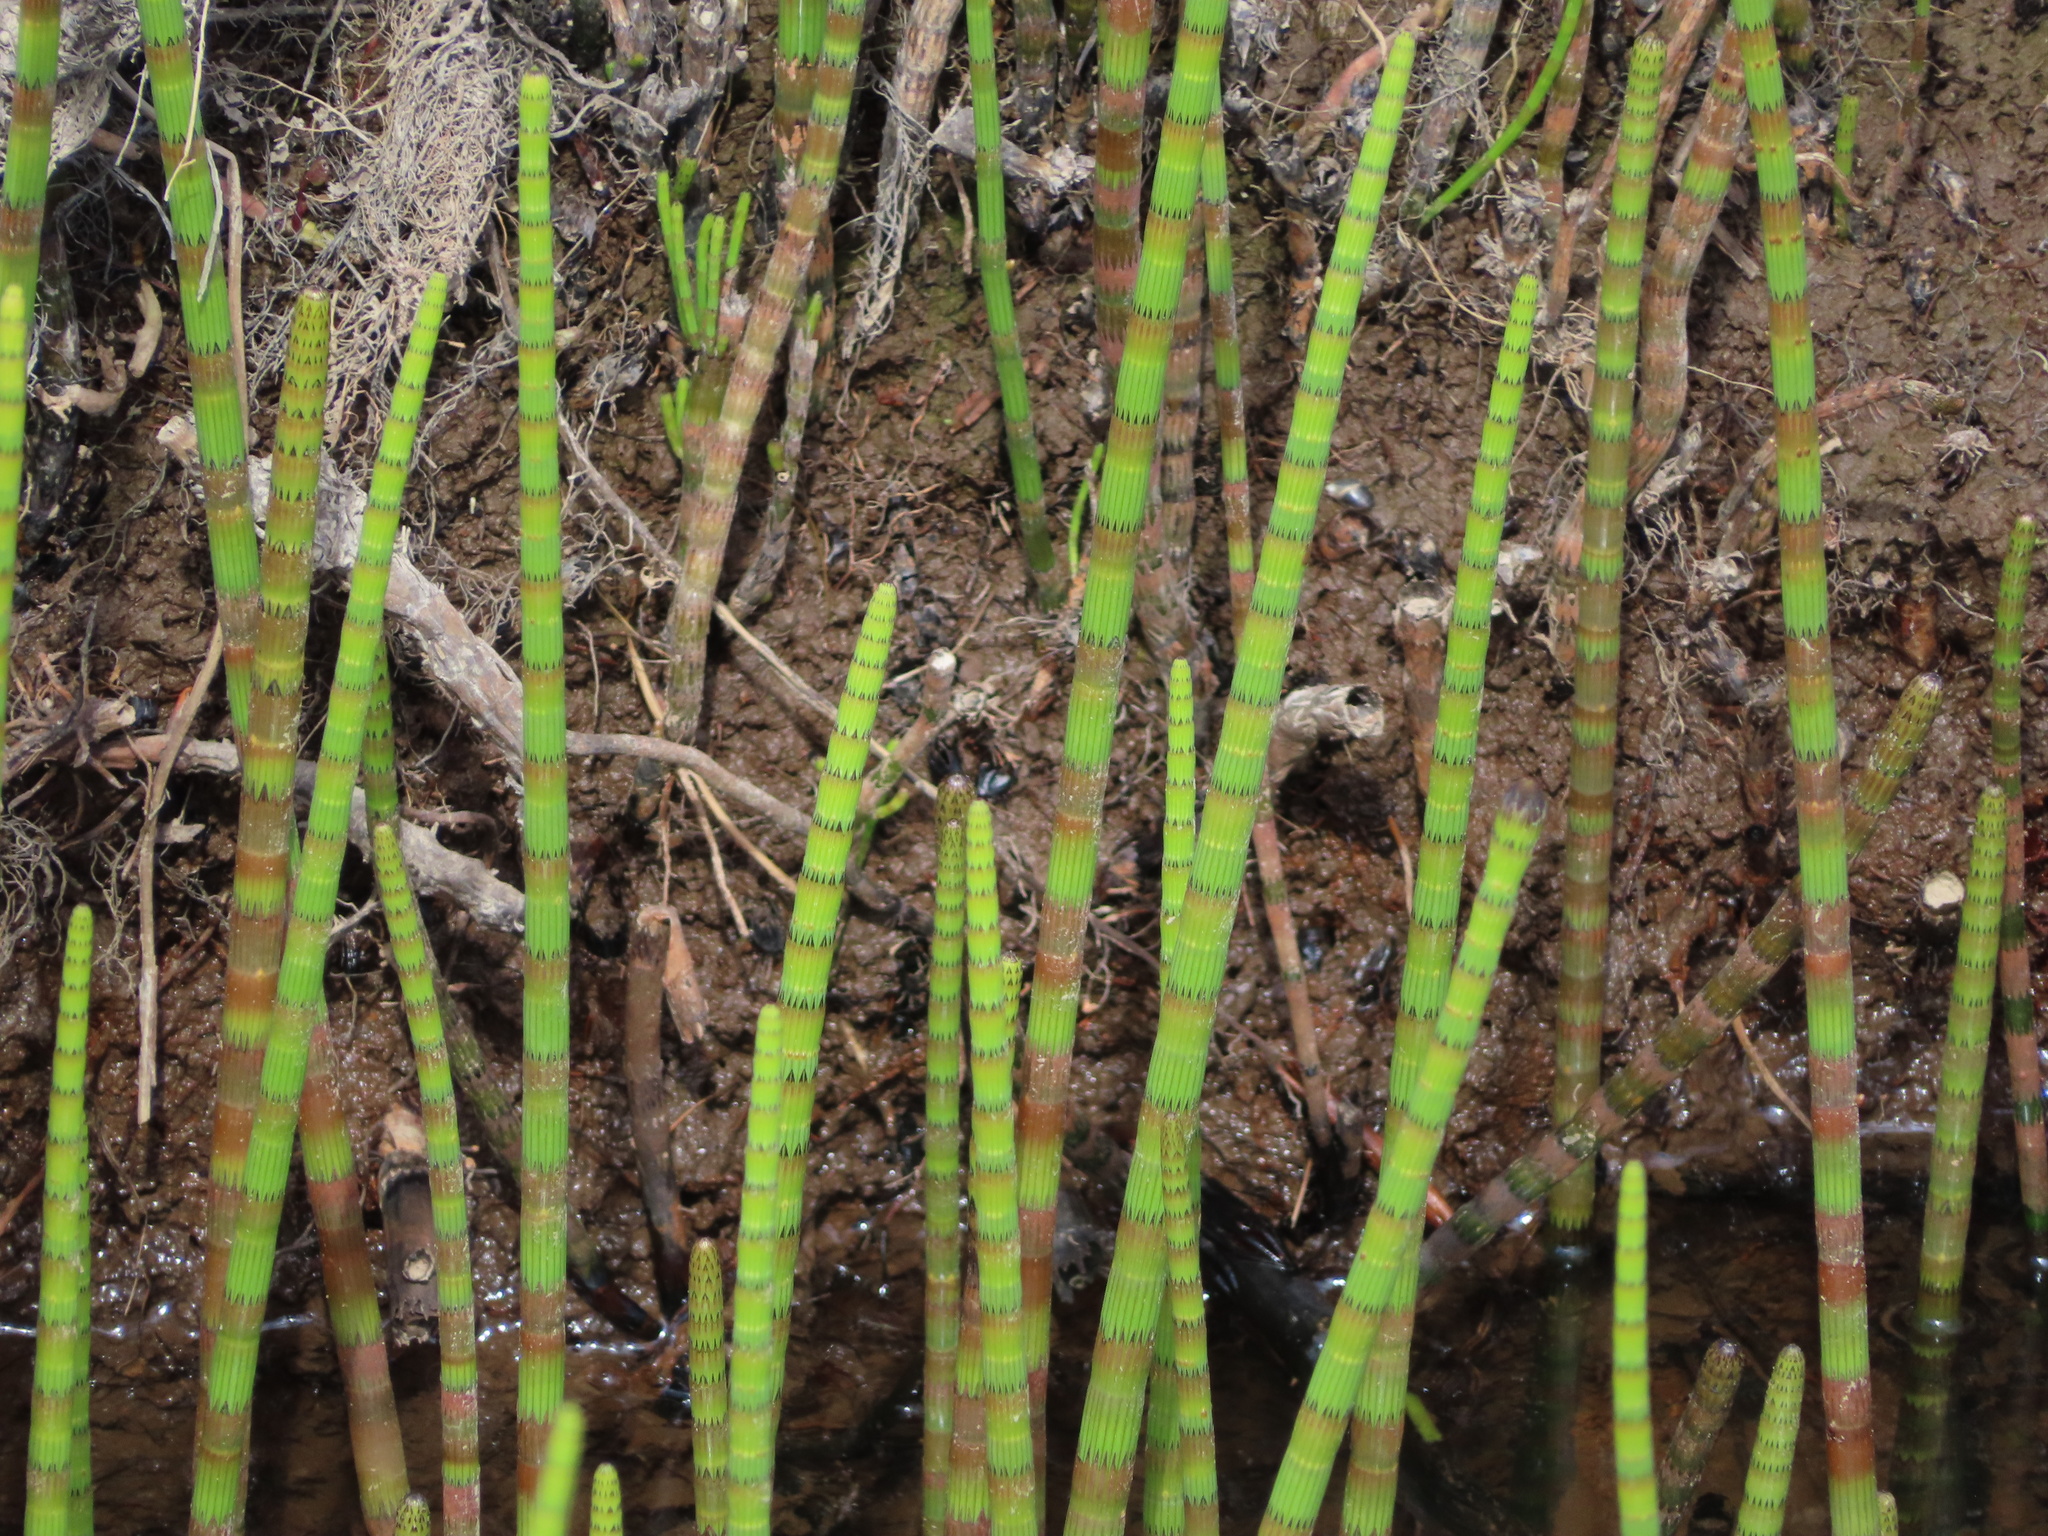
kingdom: Plantae
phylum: Tracheophyta
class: Polypodiopsida
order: Equisetales
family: Equisetaceae
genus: Equisetum
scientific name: Equisetum fluviatile
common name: Water horsetail
